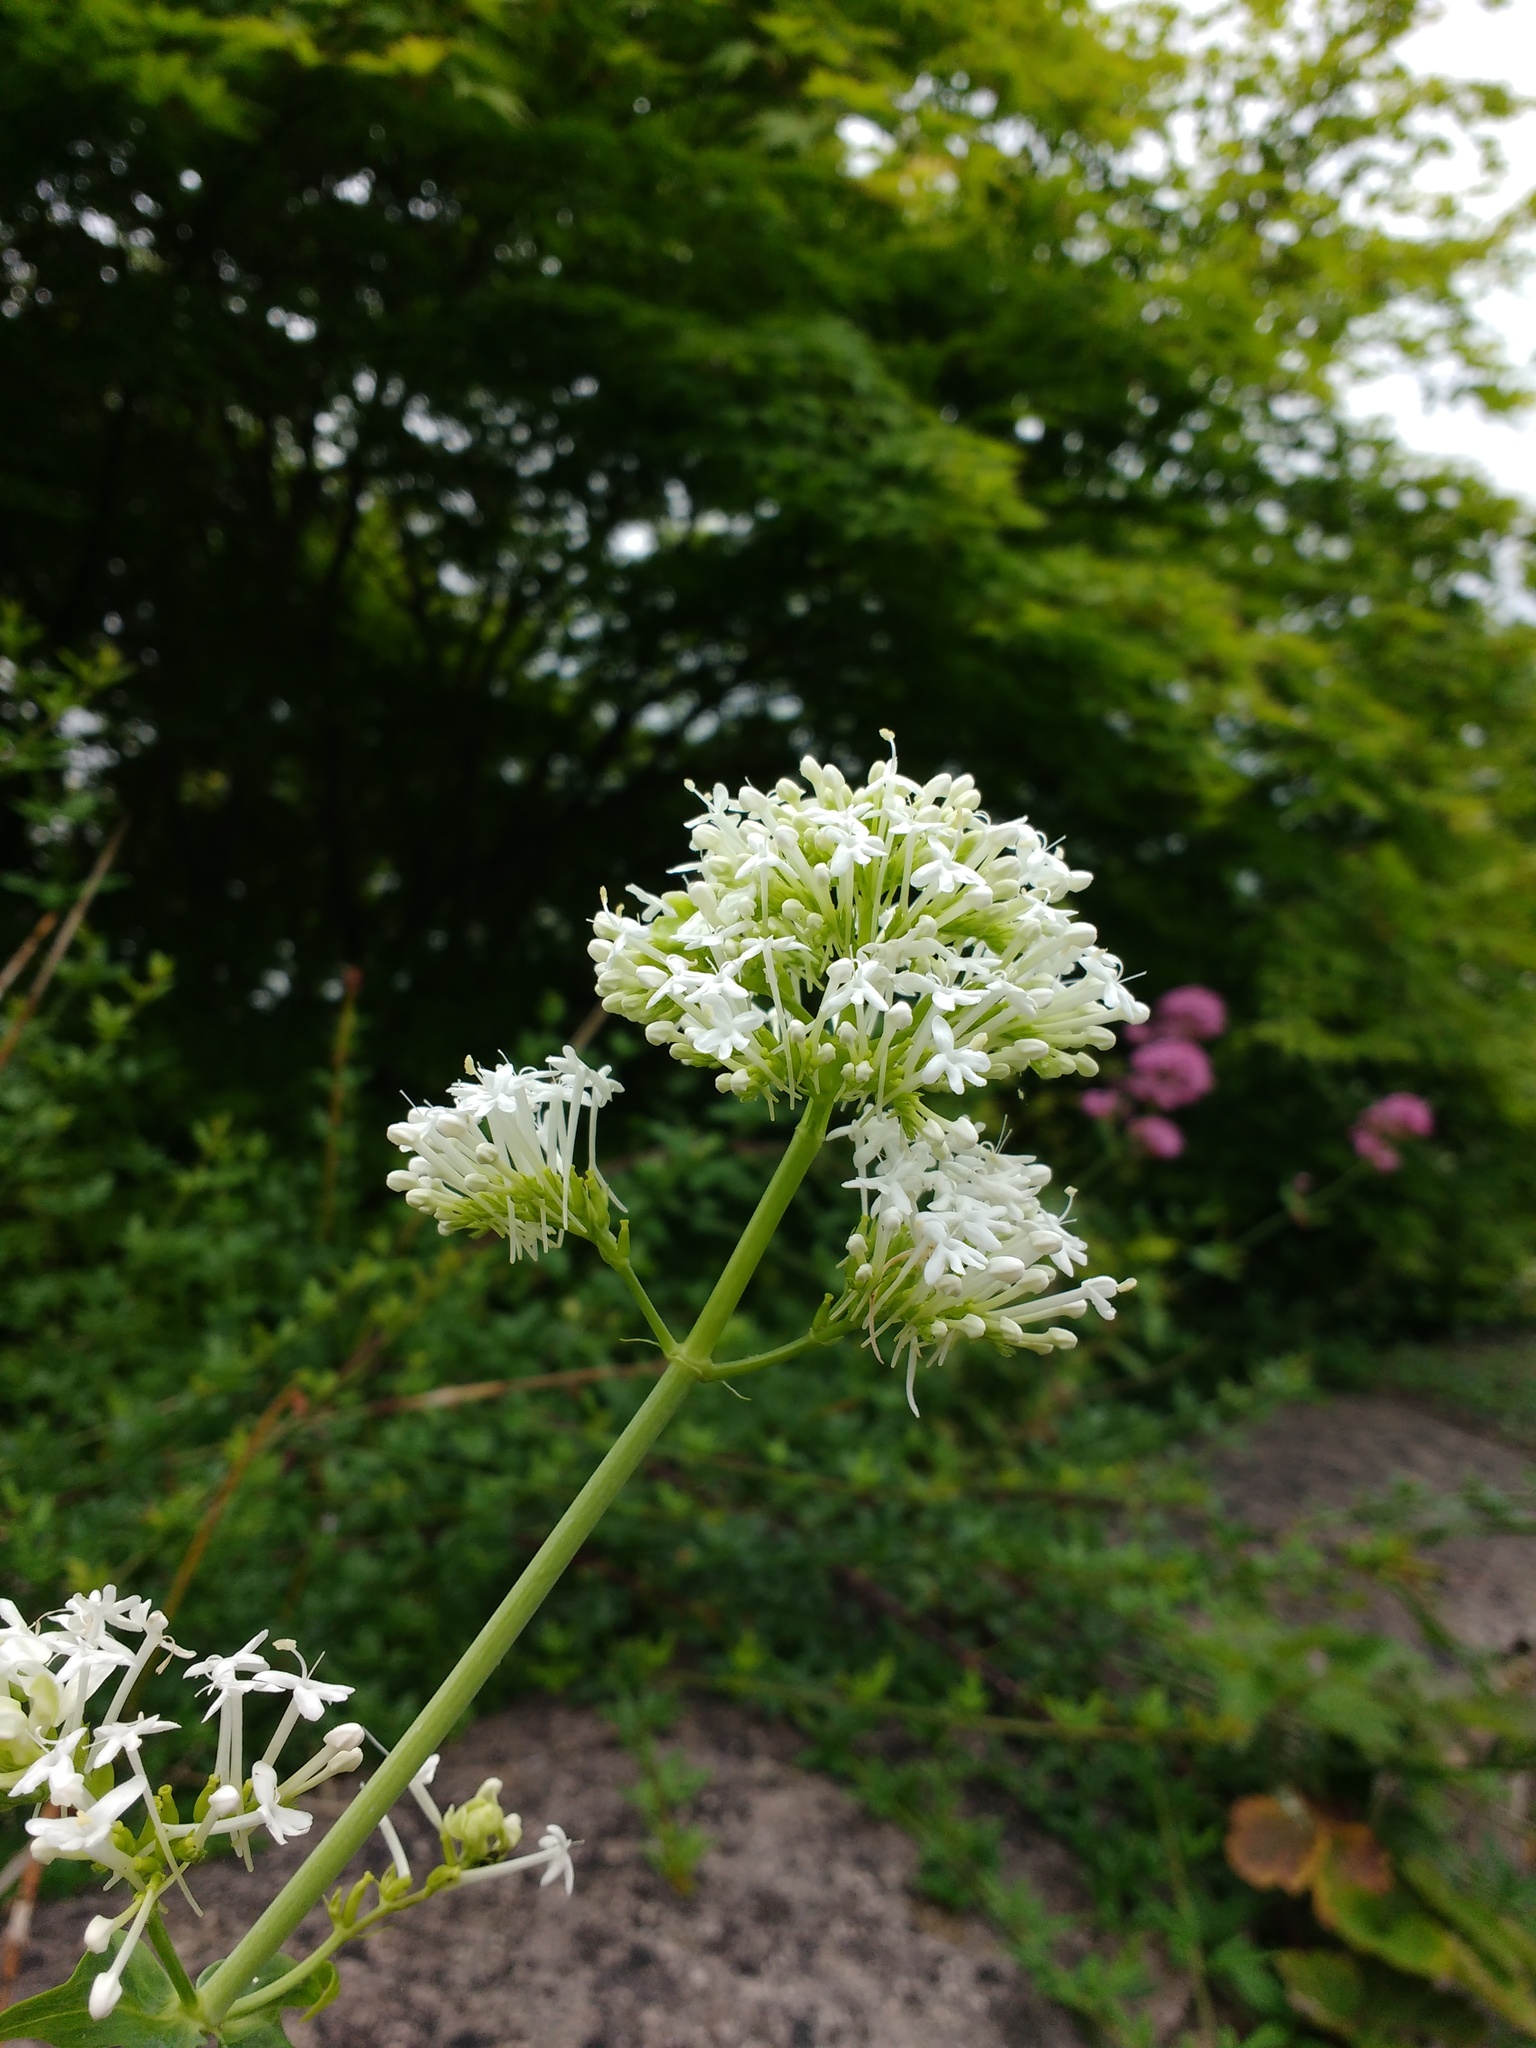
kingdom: Plantae
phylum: Tracheophyta
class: Magnoliopsida
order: Dipsacales
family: Caprifoliaceae
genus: Centranthus
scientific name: Centranthus ruber
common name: Red valerian
